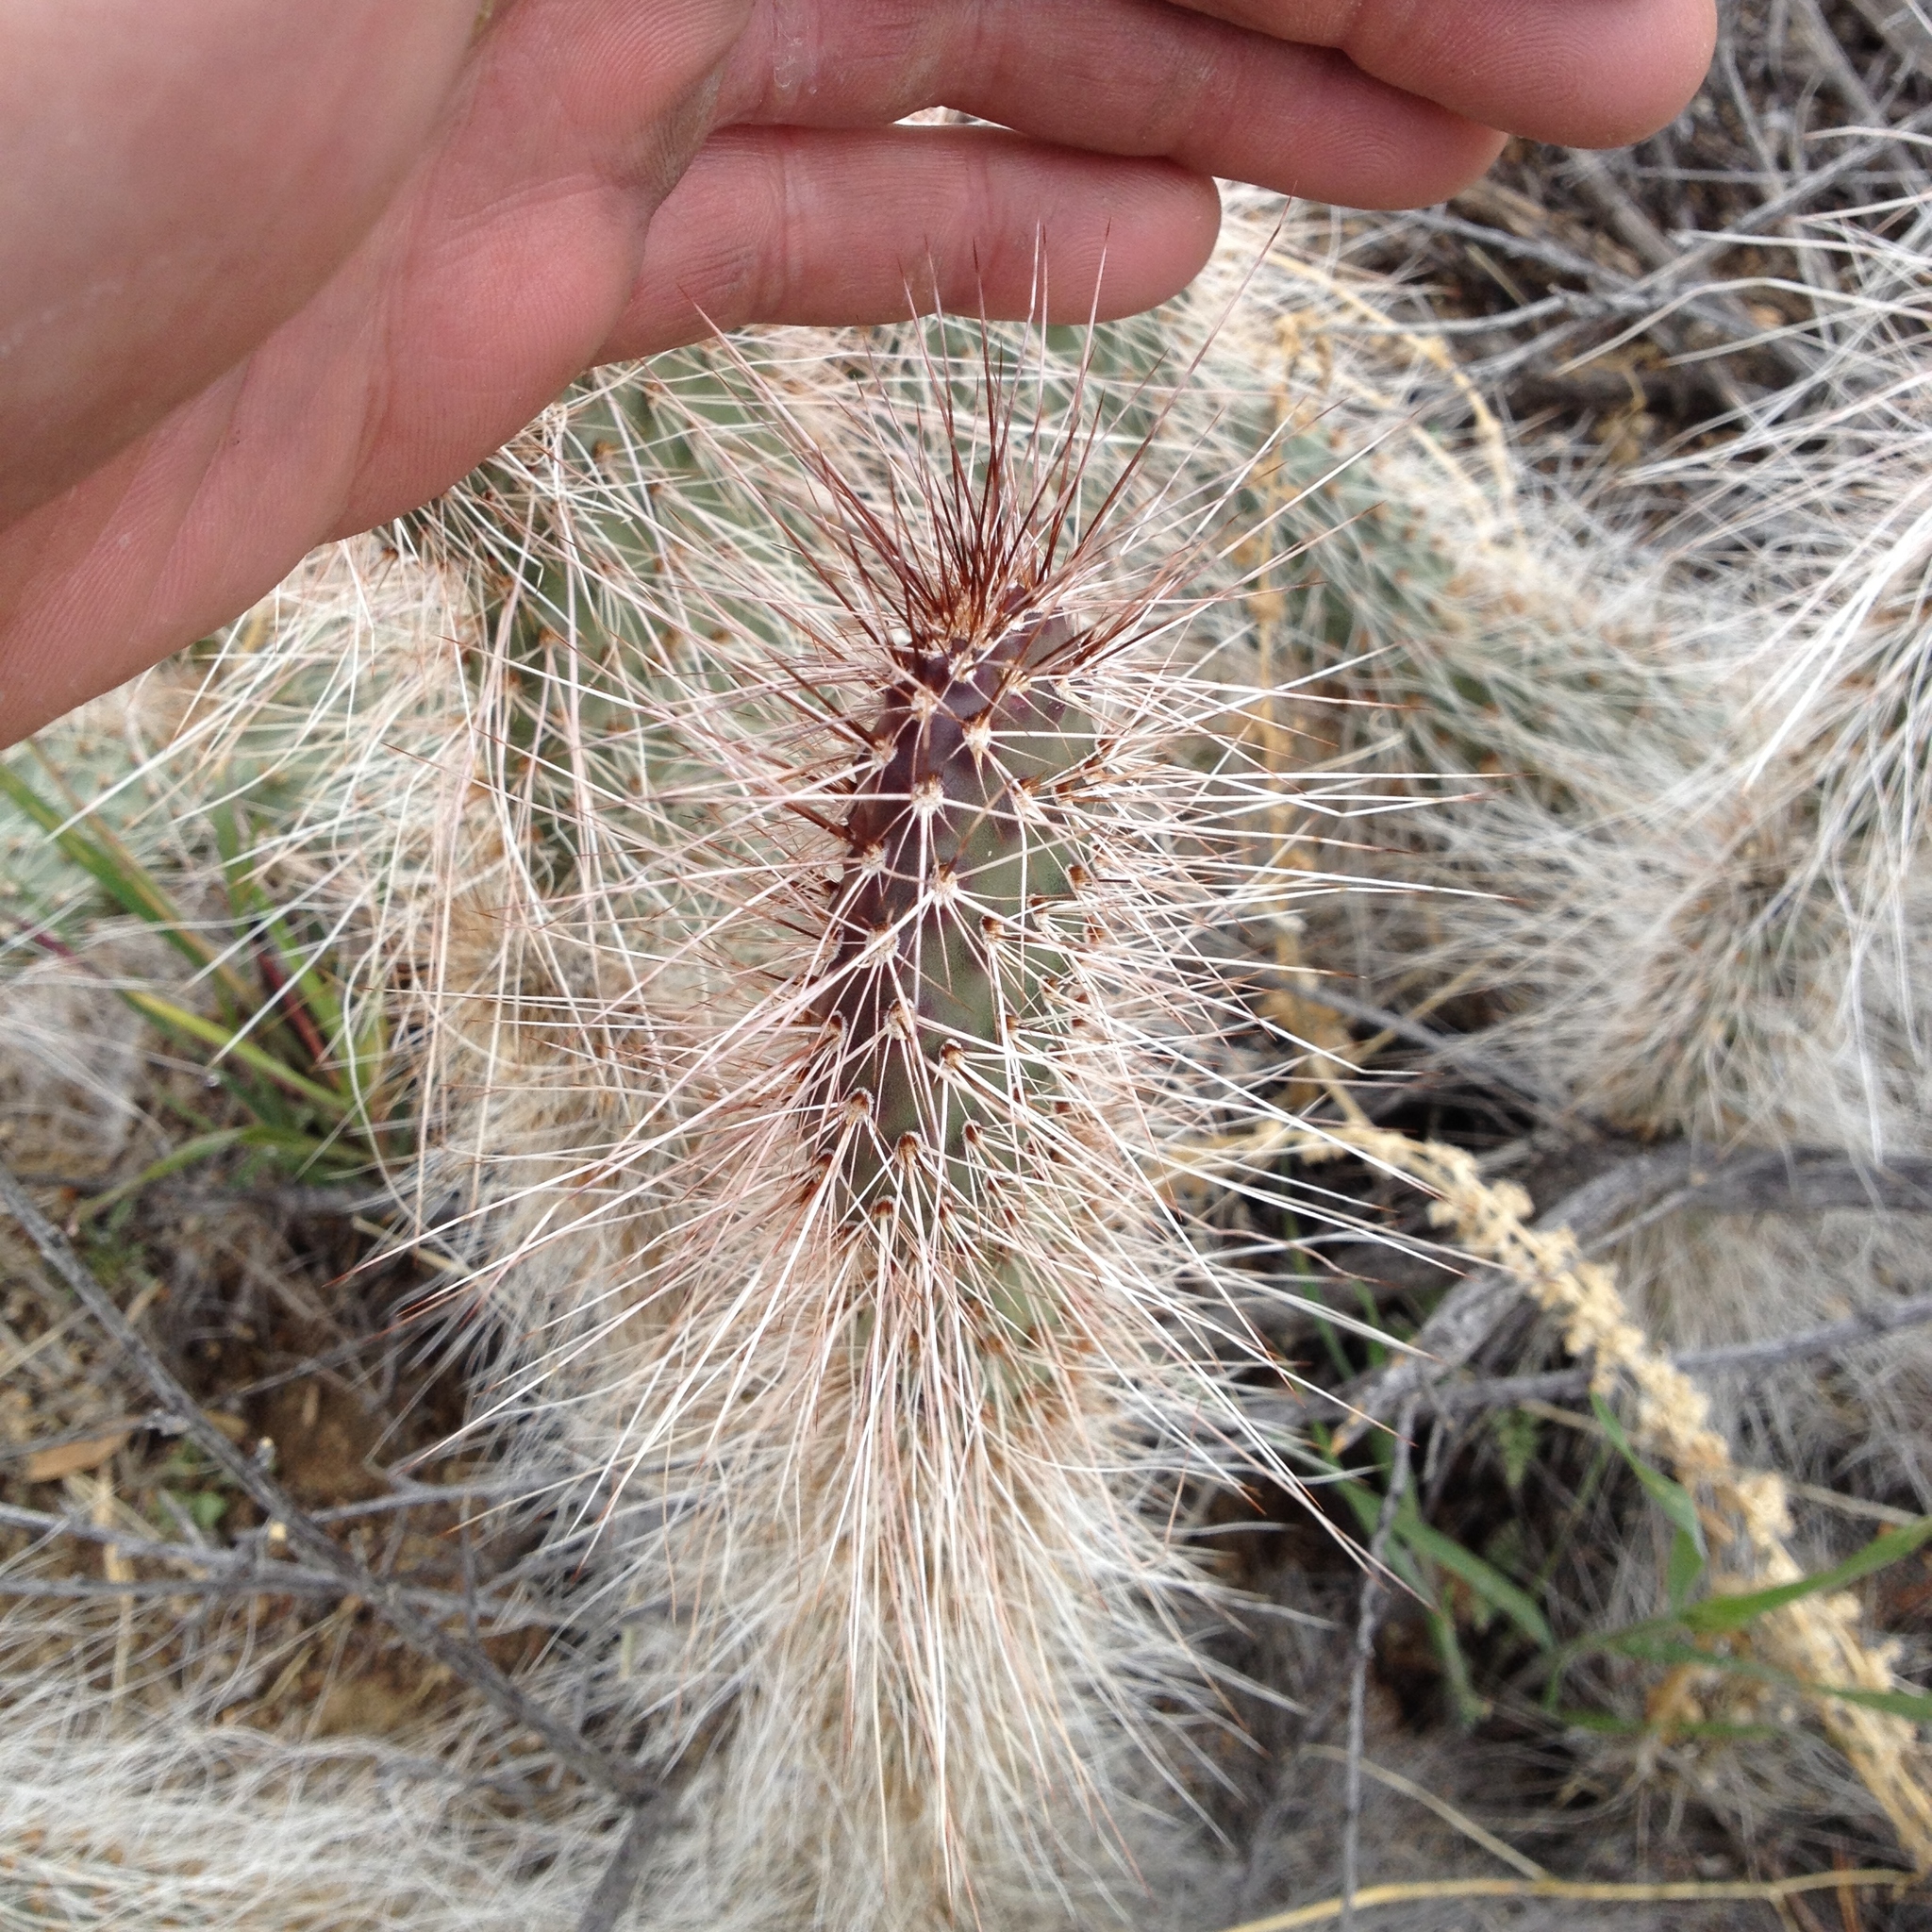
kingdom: Plantae
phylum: Tracheophyta
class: Magnoliopsida
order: Caryophyllales
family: Cactaceae
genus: Opuntia
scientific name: Opuntia polyacantha
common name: Plains prickly-pear
